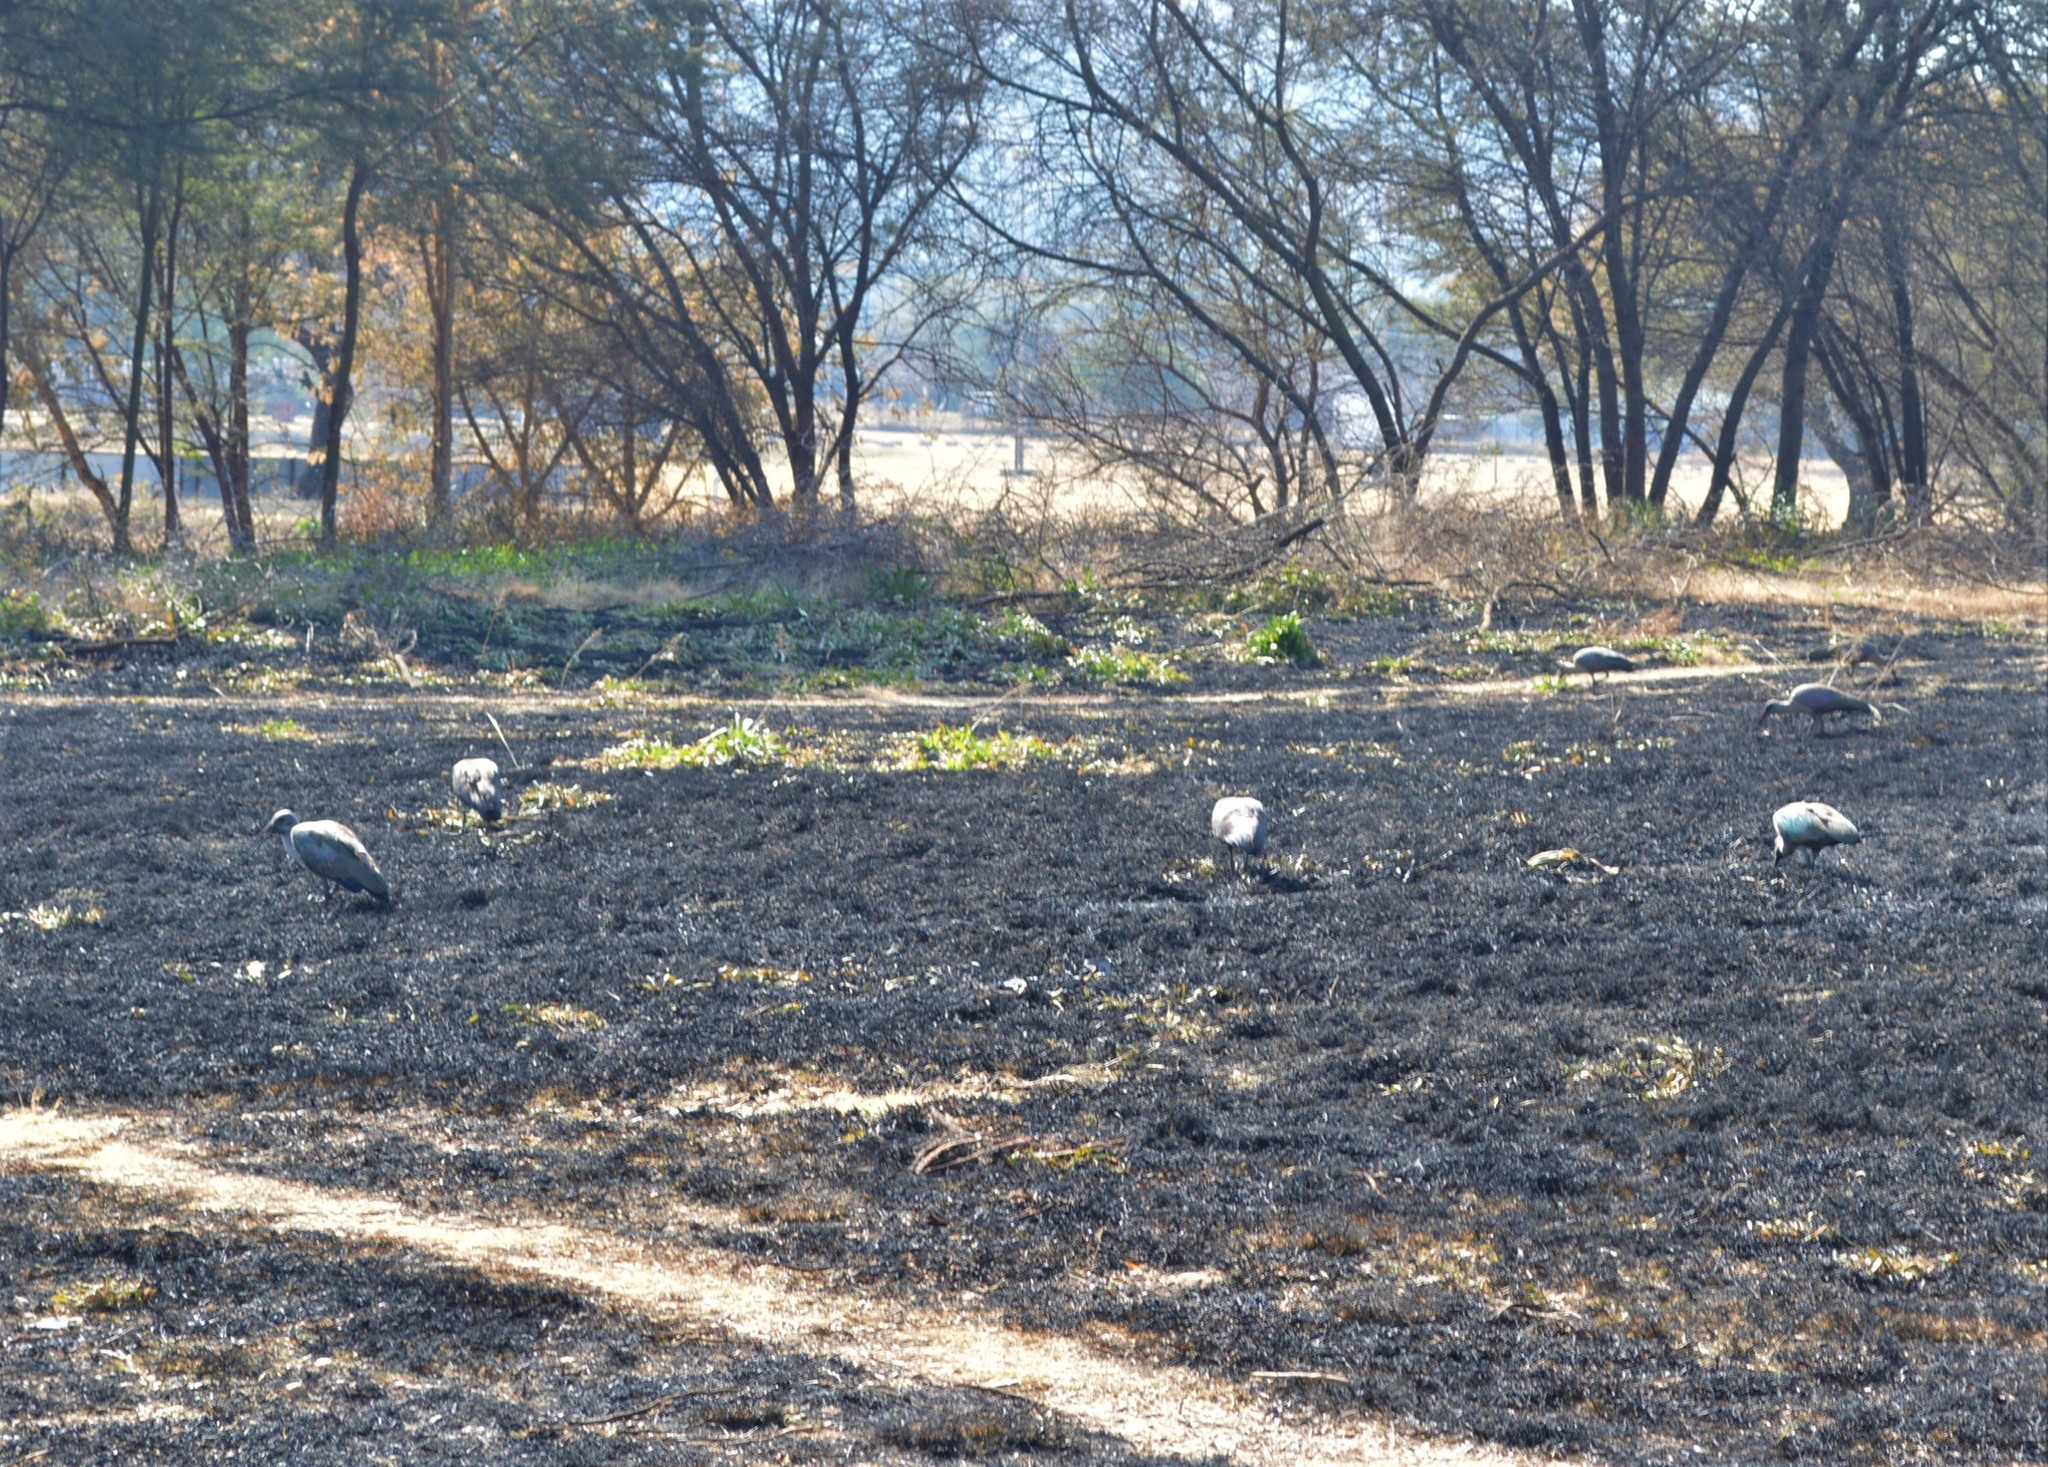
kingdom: Animalia
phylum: Chordata
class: Aves
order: Pelecaniformes
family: Threskiornithidae
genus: Bostrychia
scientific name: Bostrychia hagedash
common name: Hadada ibis
